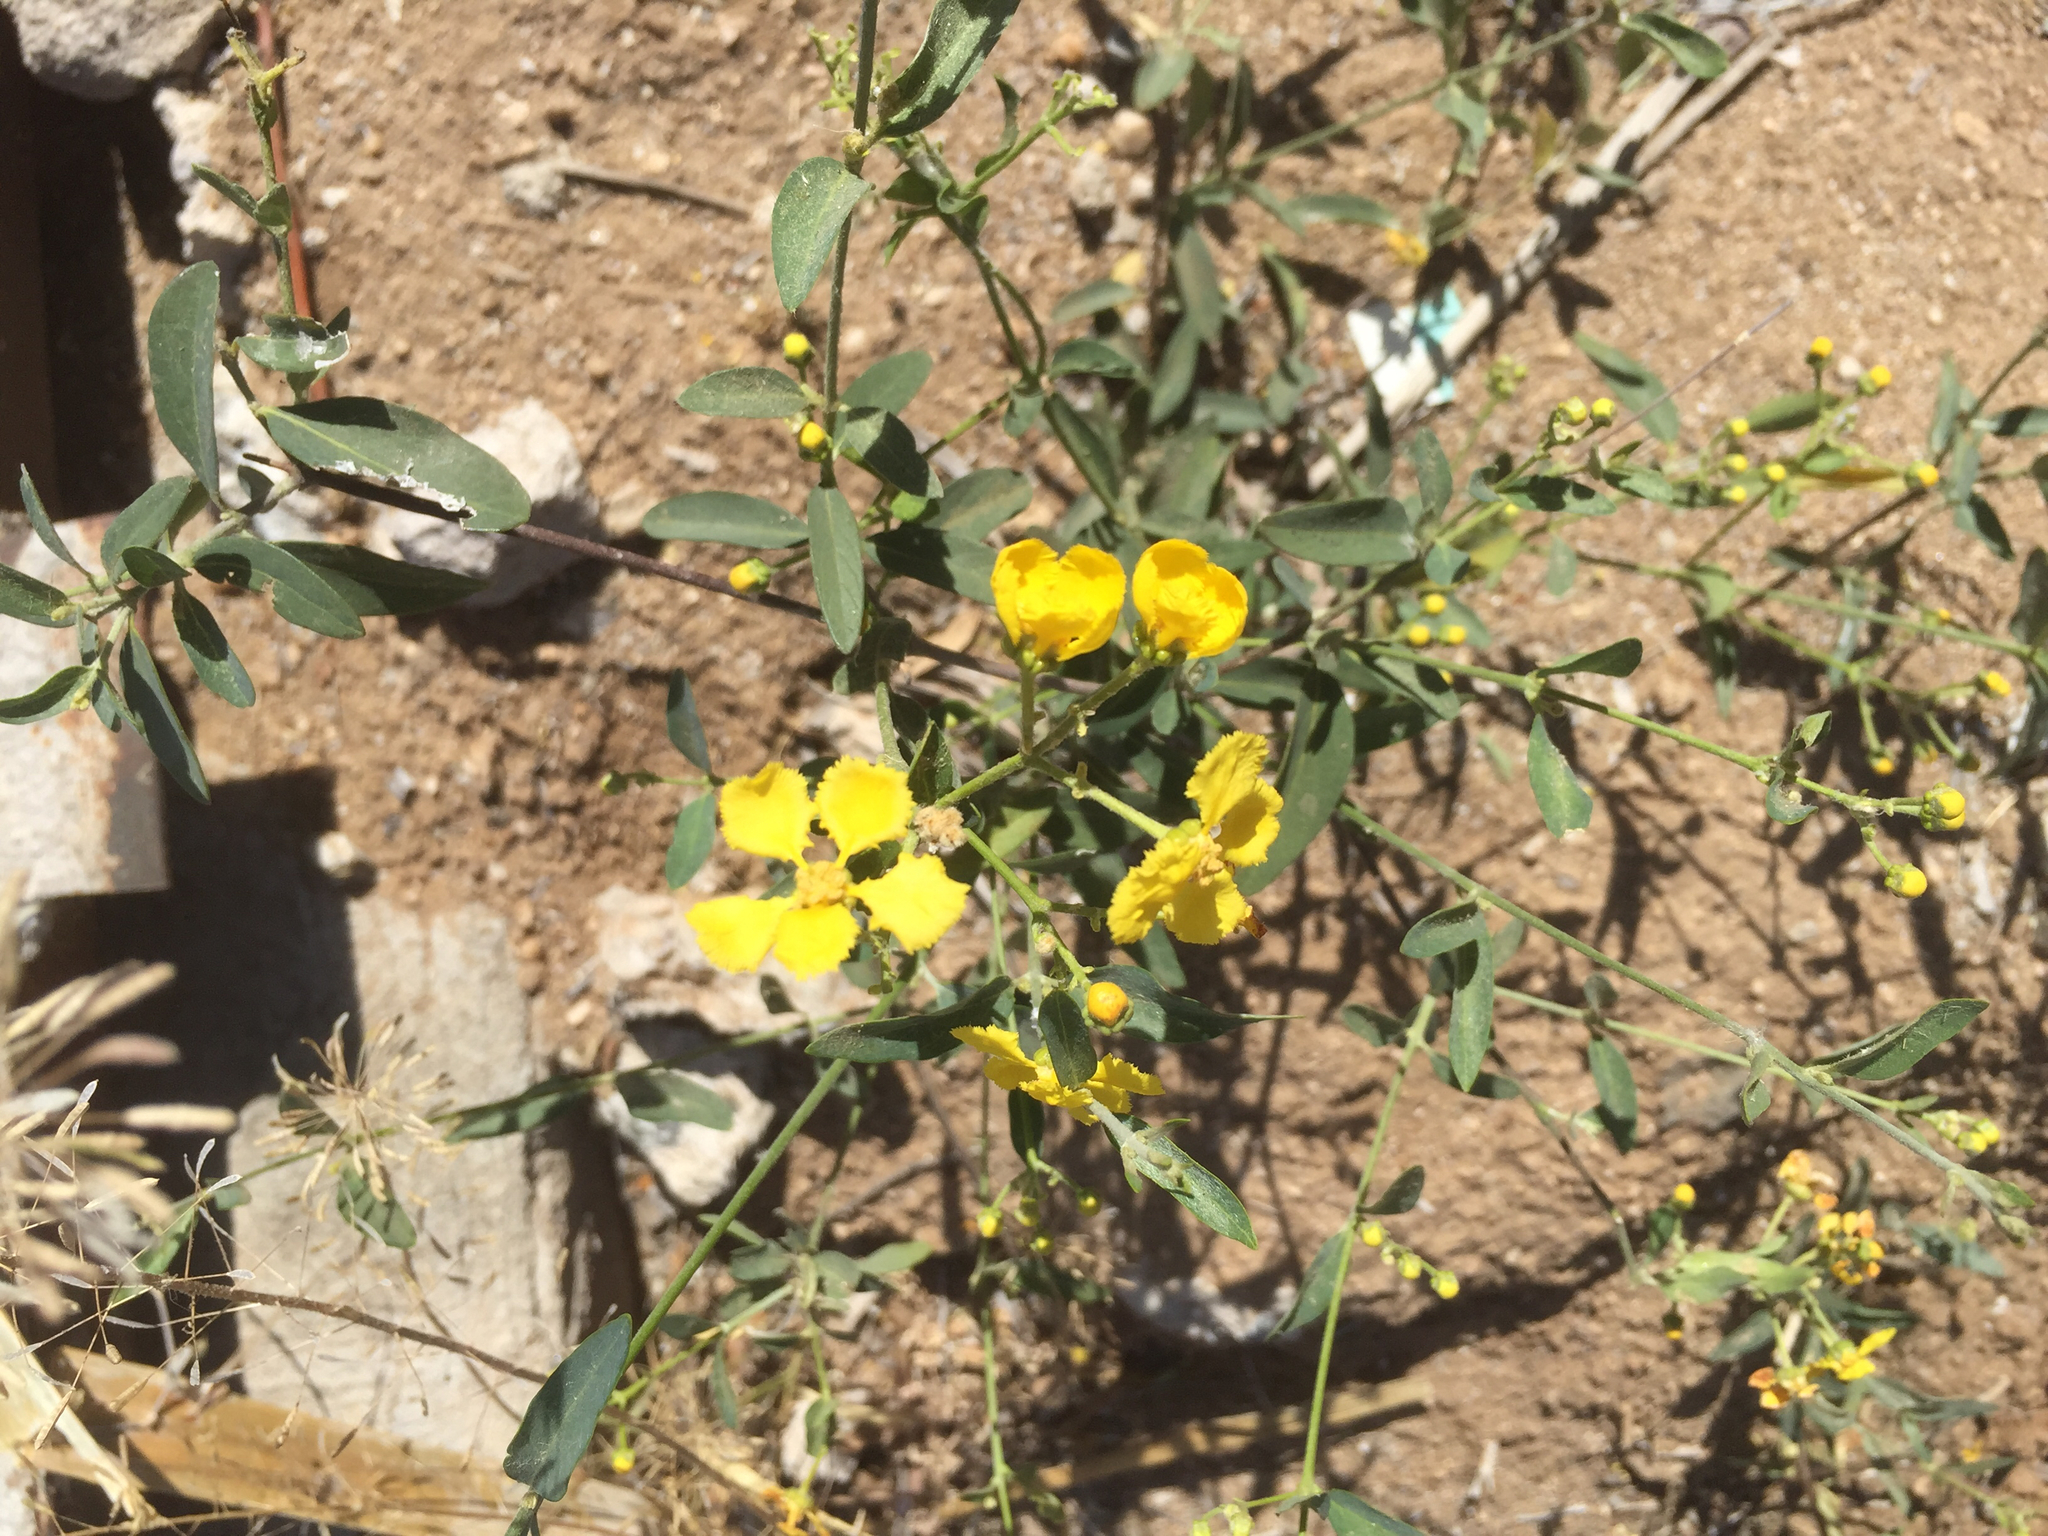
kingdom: Plantae
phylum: Tracheophyta
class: Magnoliopsida
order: Malpighiales
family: Malpighiaceae
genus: Callaeum
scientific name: Callaeum macropterum
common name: Mexican butterfly-vine
